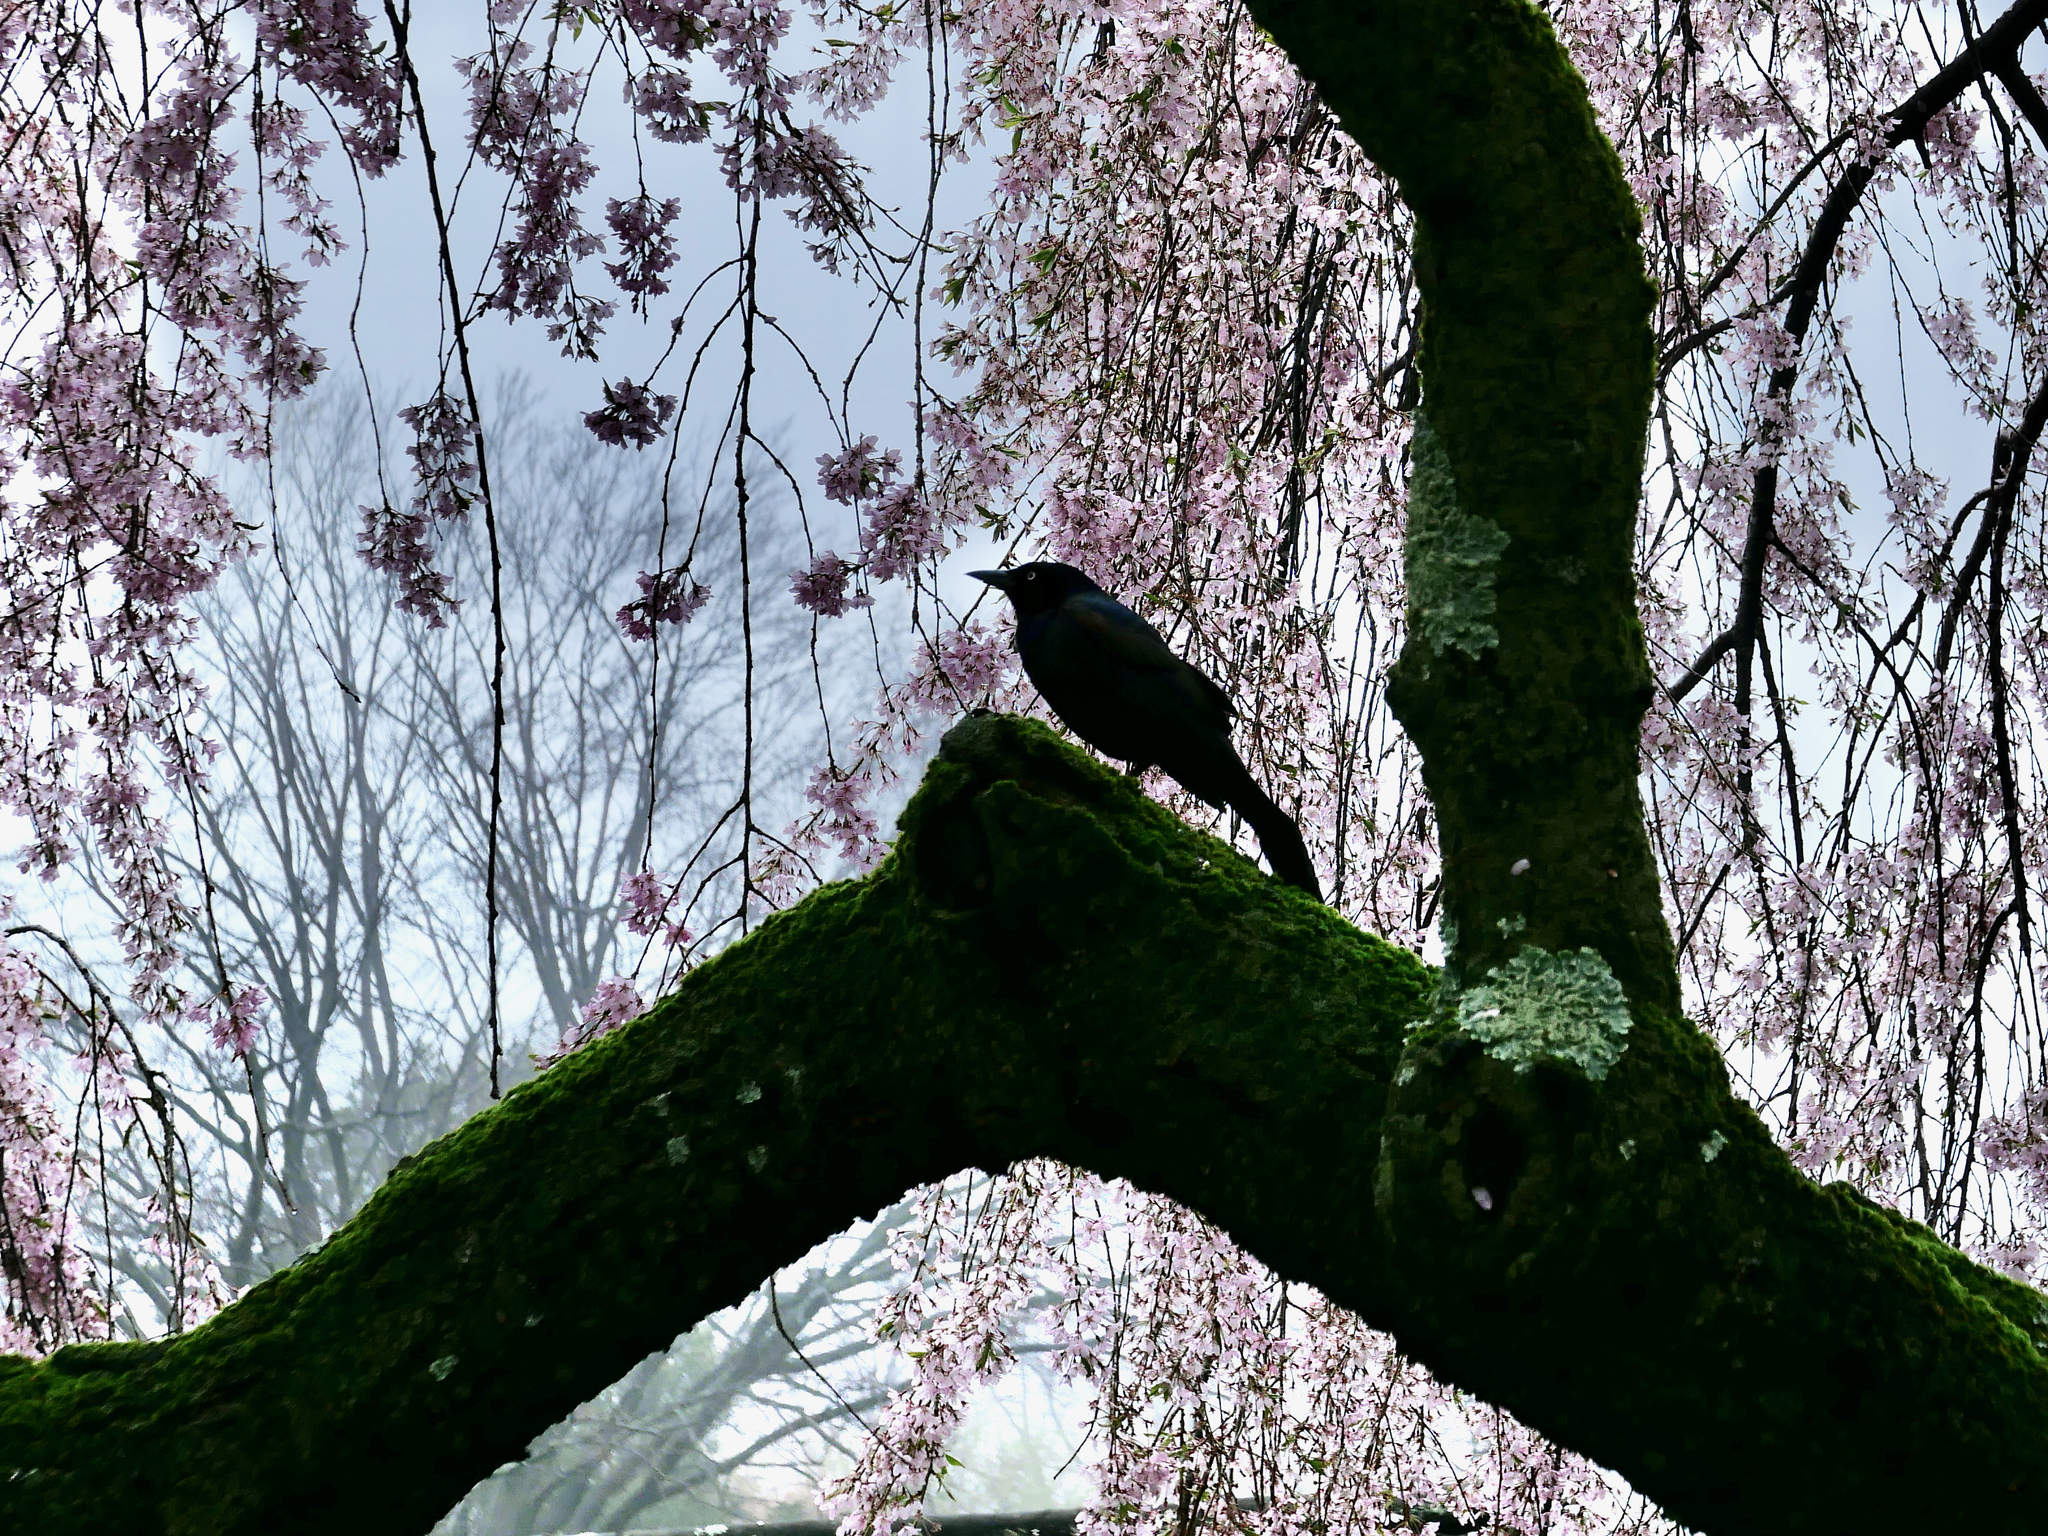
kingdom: Animalia
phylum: Chordata
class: Aves
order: Passeriformes
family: Icteridae
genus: Quiscalus
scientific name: Quiscalus quiscula
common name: Common grackle
